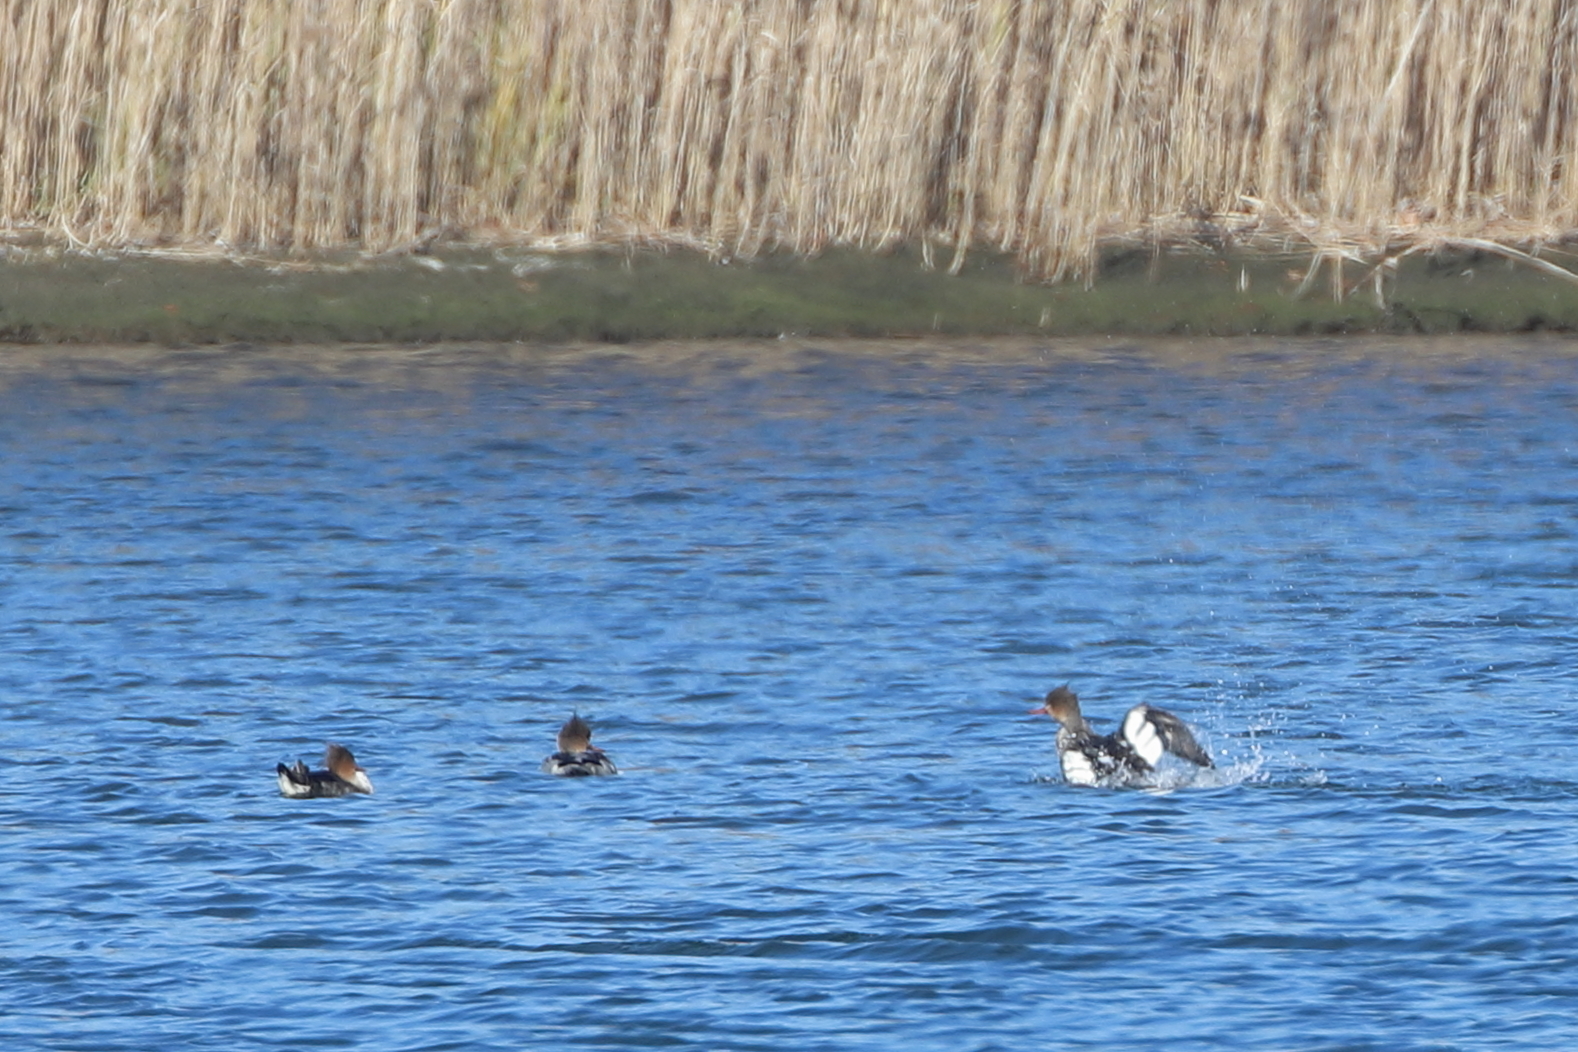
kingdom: Animalia
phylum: Chordata
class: Aves
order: Anseriformes
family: Anatidae
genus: Mergus
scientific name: Mergus serrator
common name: Red-breasted merganser
